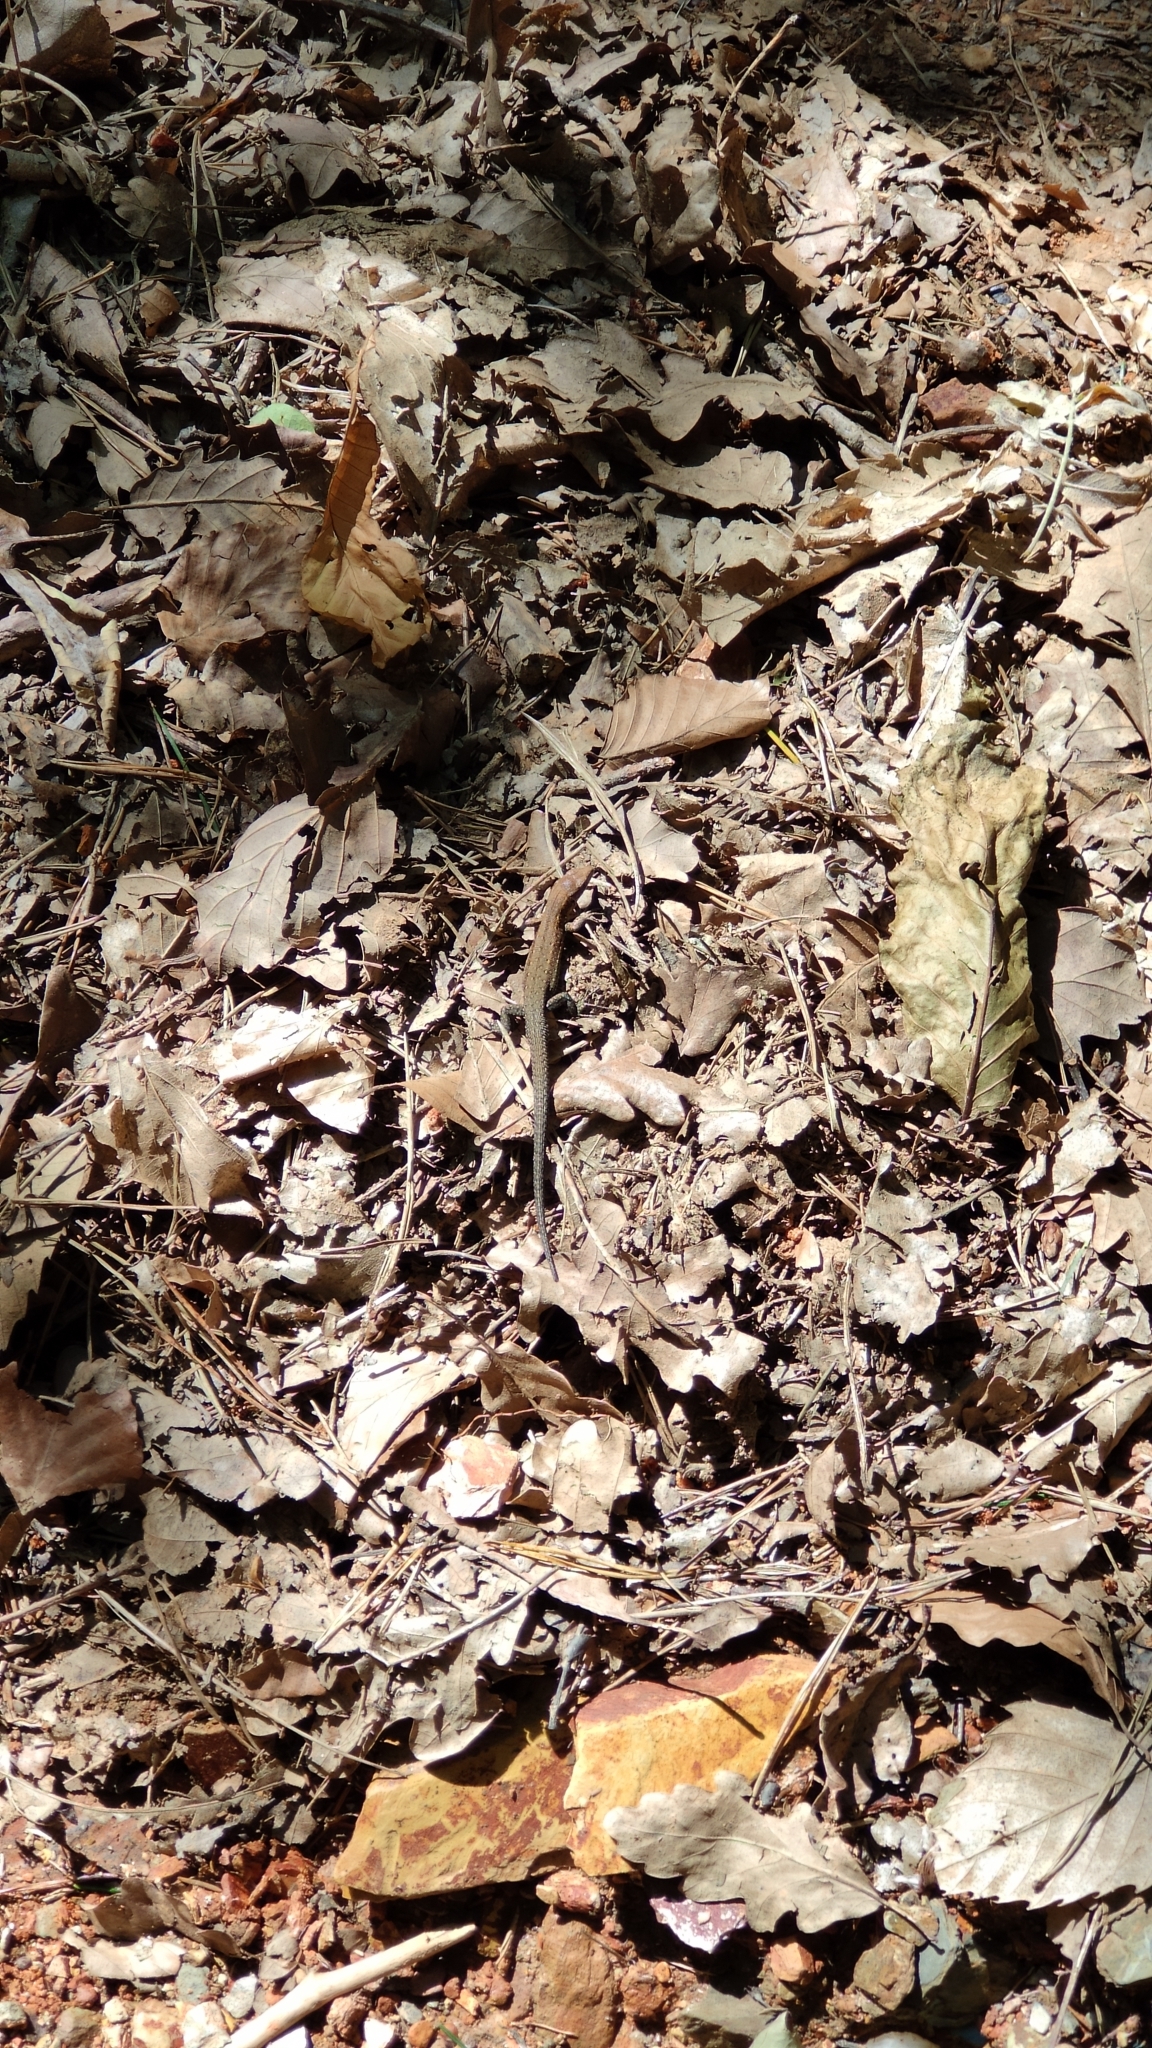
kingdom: Animalia
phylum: Chordata
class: Squamata
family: Lacertidae
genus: Zootoca
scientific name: Zootoca
